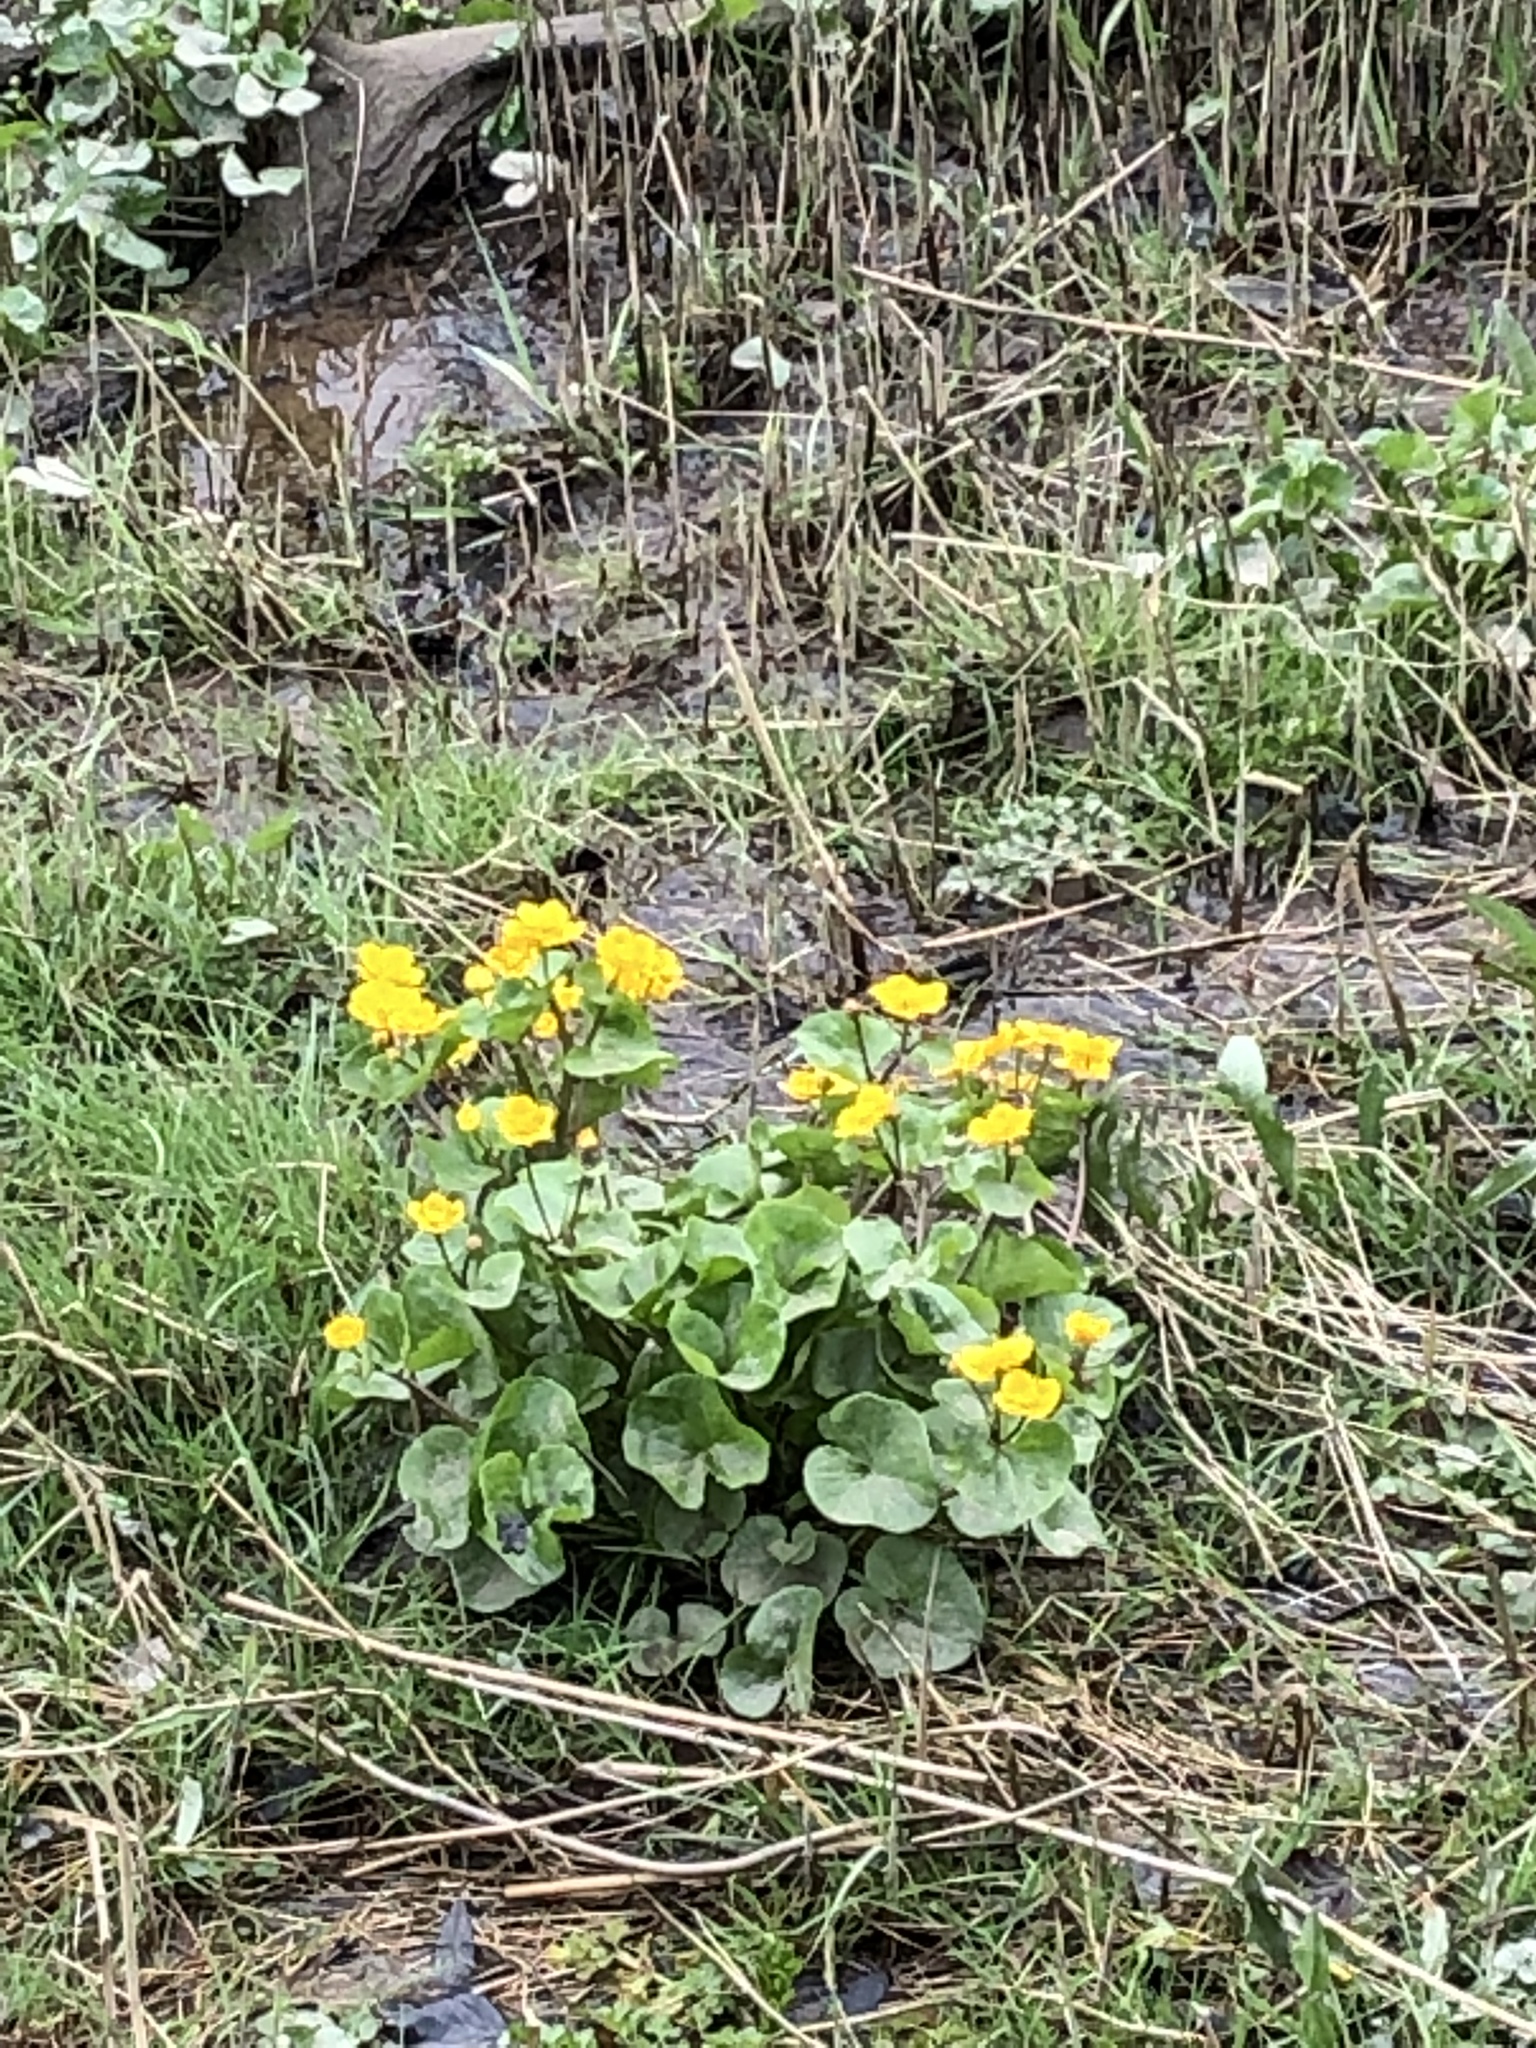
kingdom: Plantae
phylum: Tracheophyta
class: Magnoliopsida
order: Ranunculales
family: Ranunculaceae
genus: Caltha
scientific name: Caltha palustris
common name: Marsh marigold
